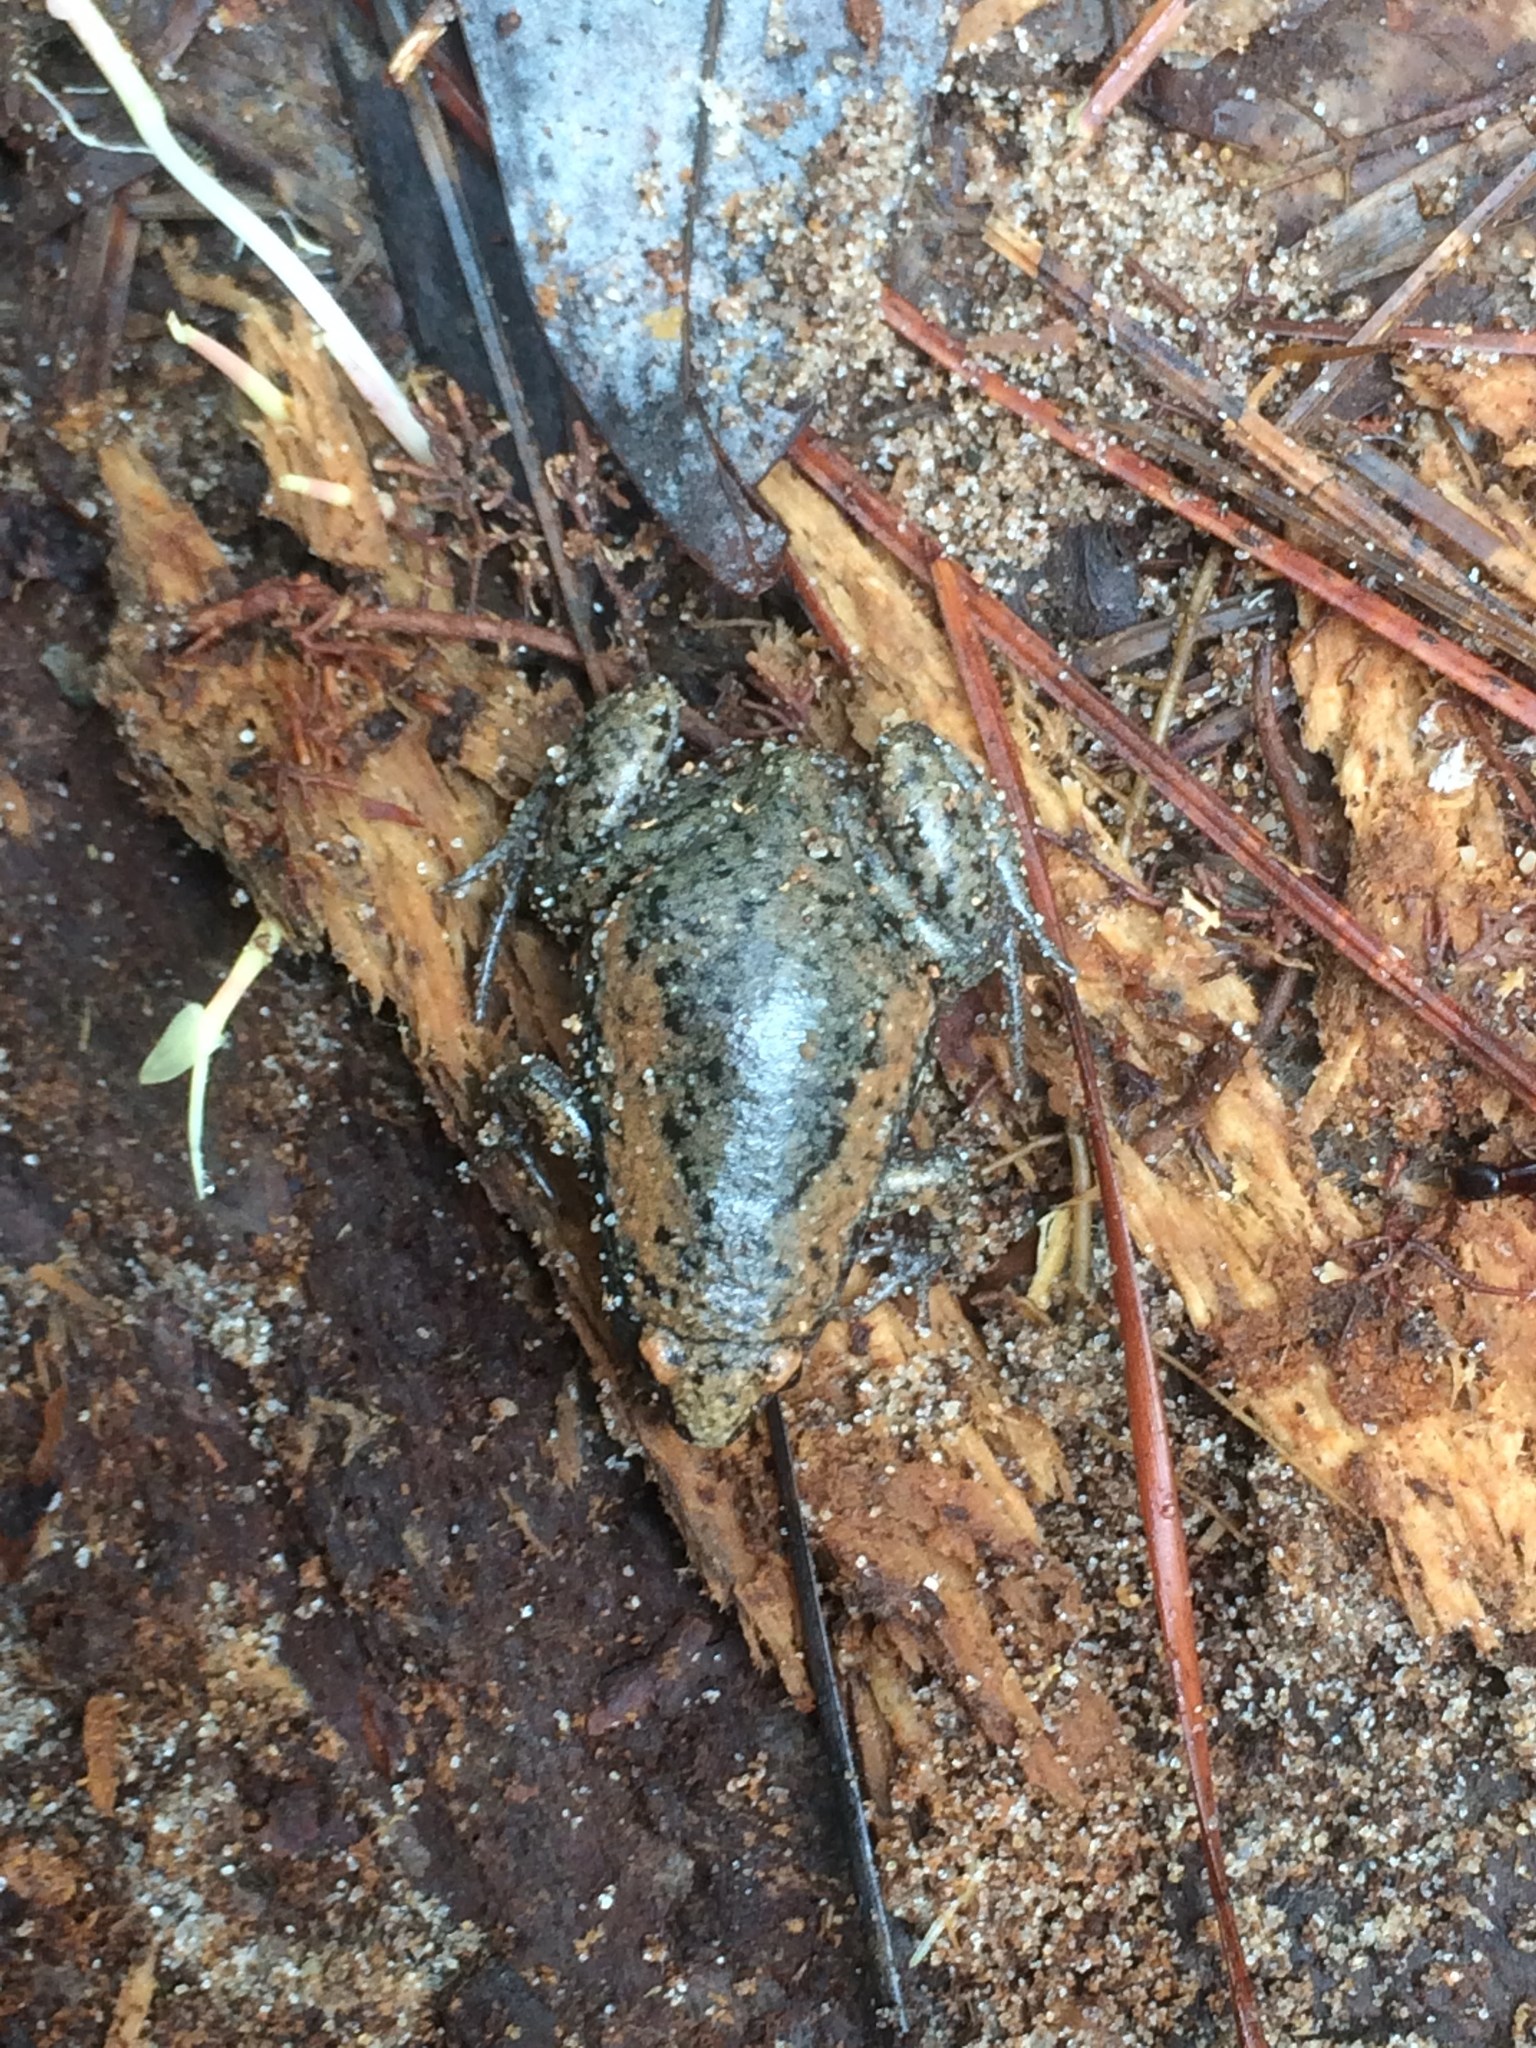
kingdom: Animalia
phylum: Chordata
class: Amphibia
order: Anura
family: Microhylidae
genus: Gastrophryne
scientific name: Gastrophryne carolinensis
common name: Eastern narrowmouth toad
